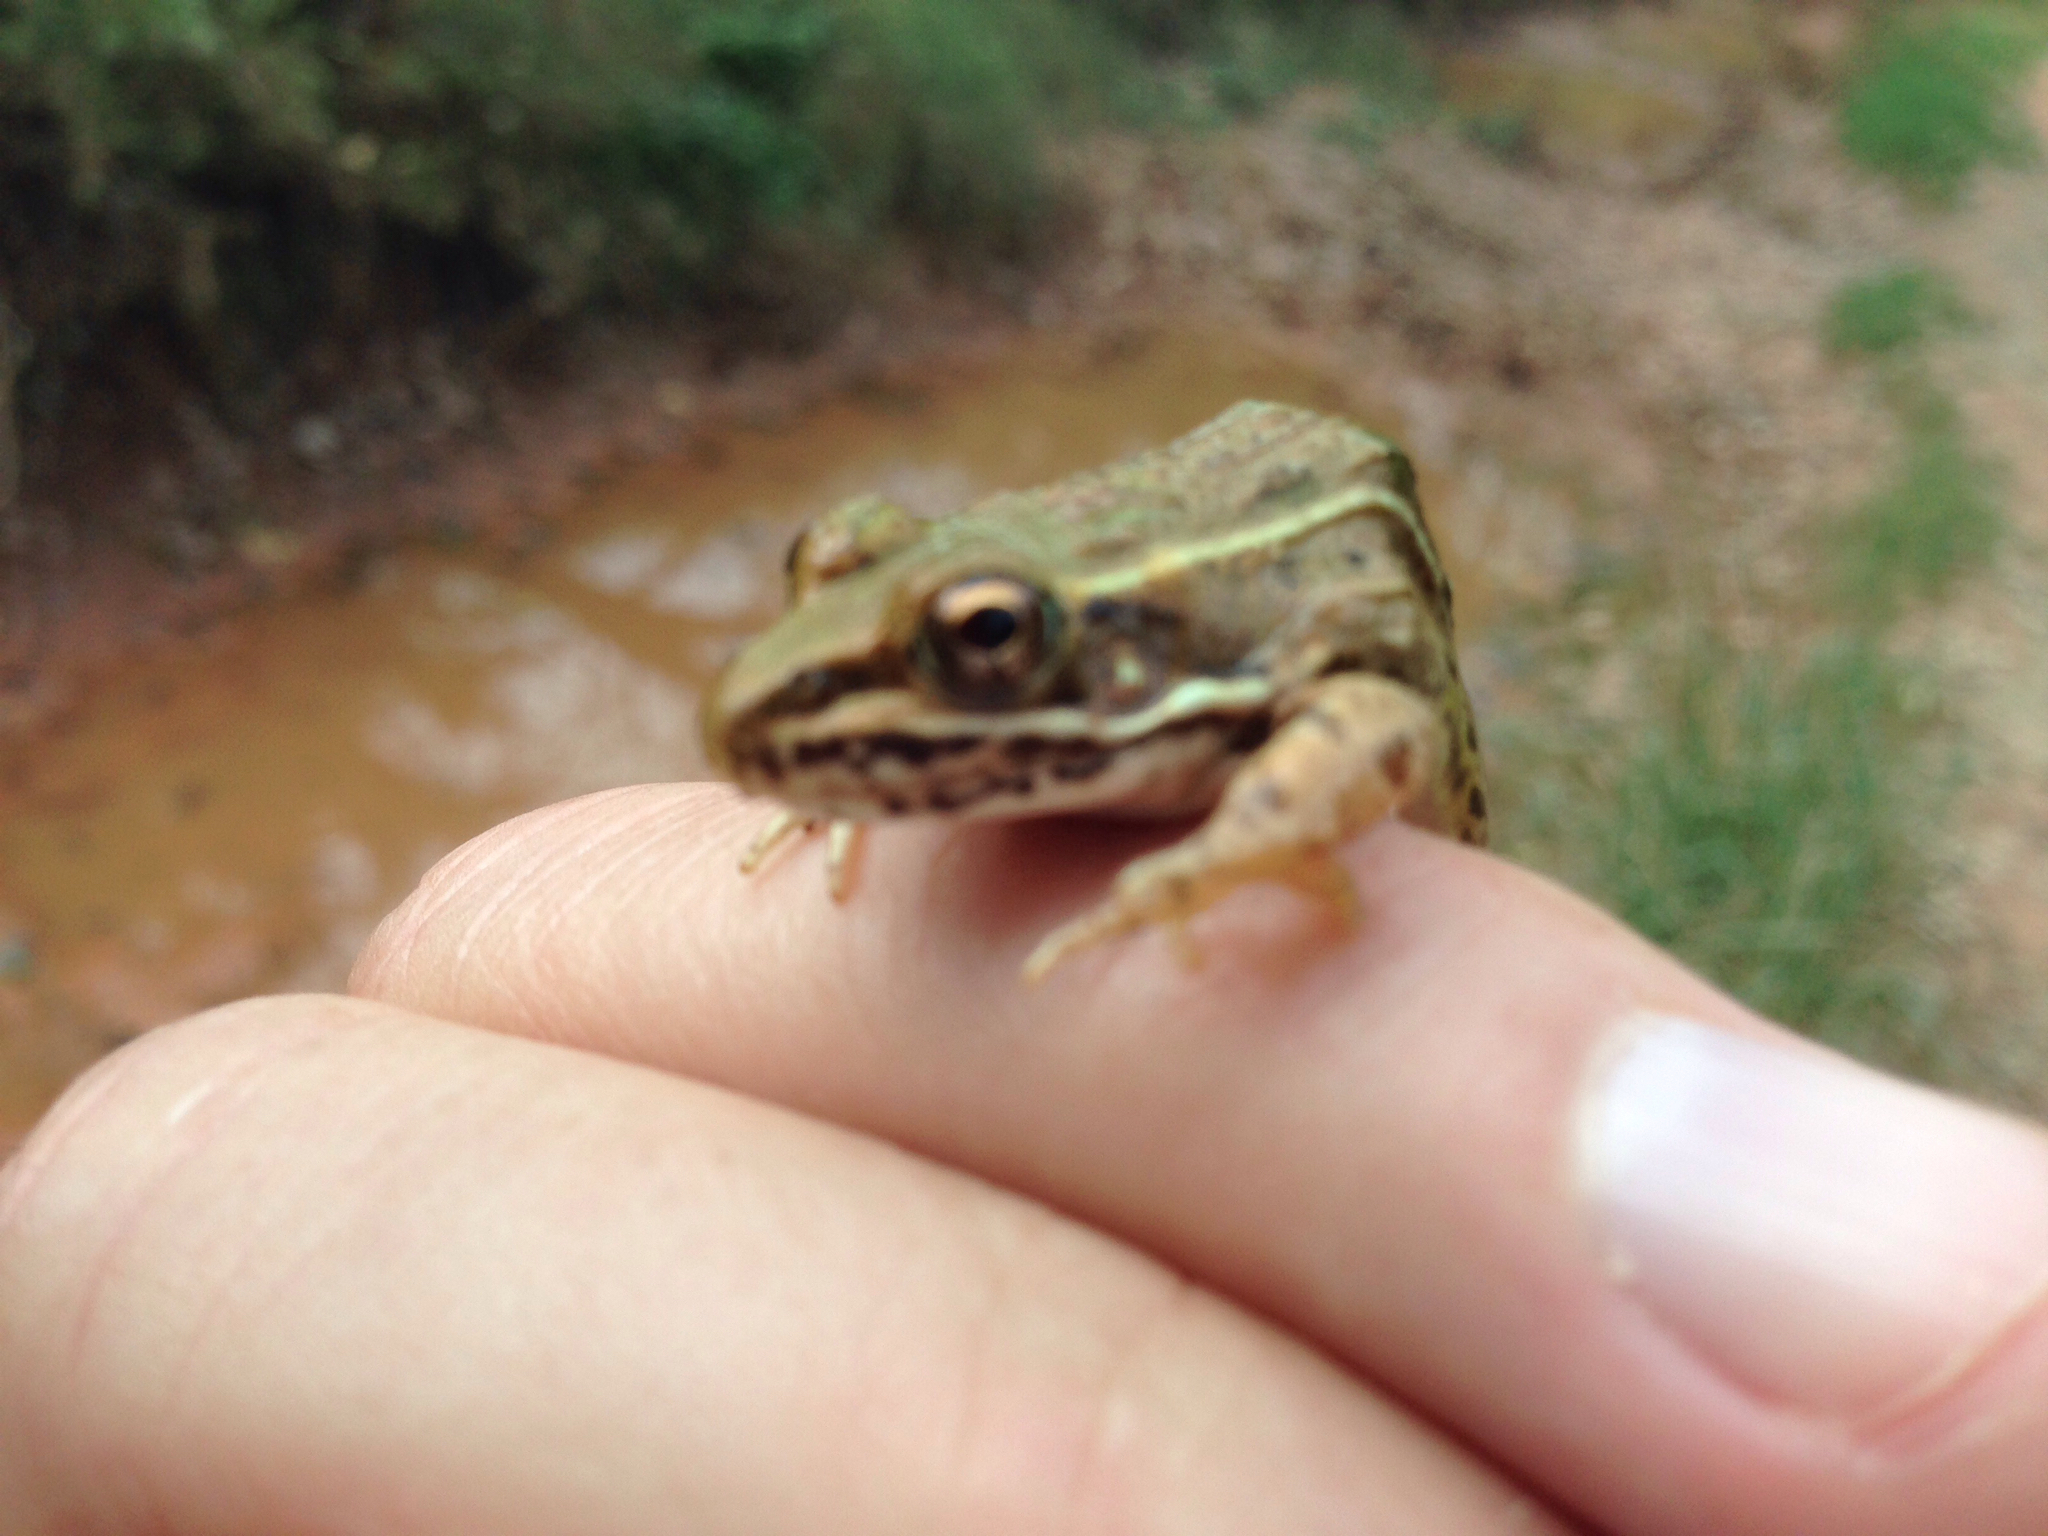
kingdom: Animalia
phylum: Chordata
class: Amphibia
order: Anura
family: Ranidae
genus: Lithobates
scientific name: Lithobates blairi
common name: Plains leopard frog
